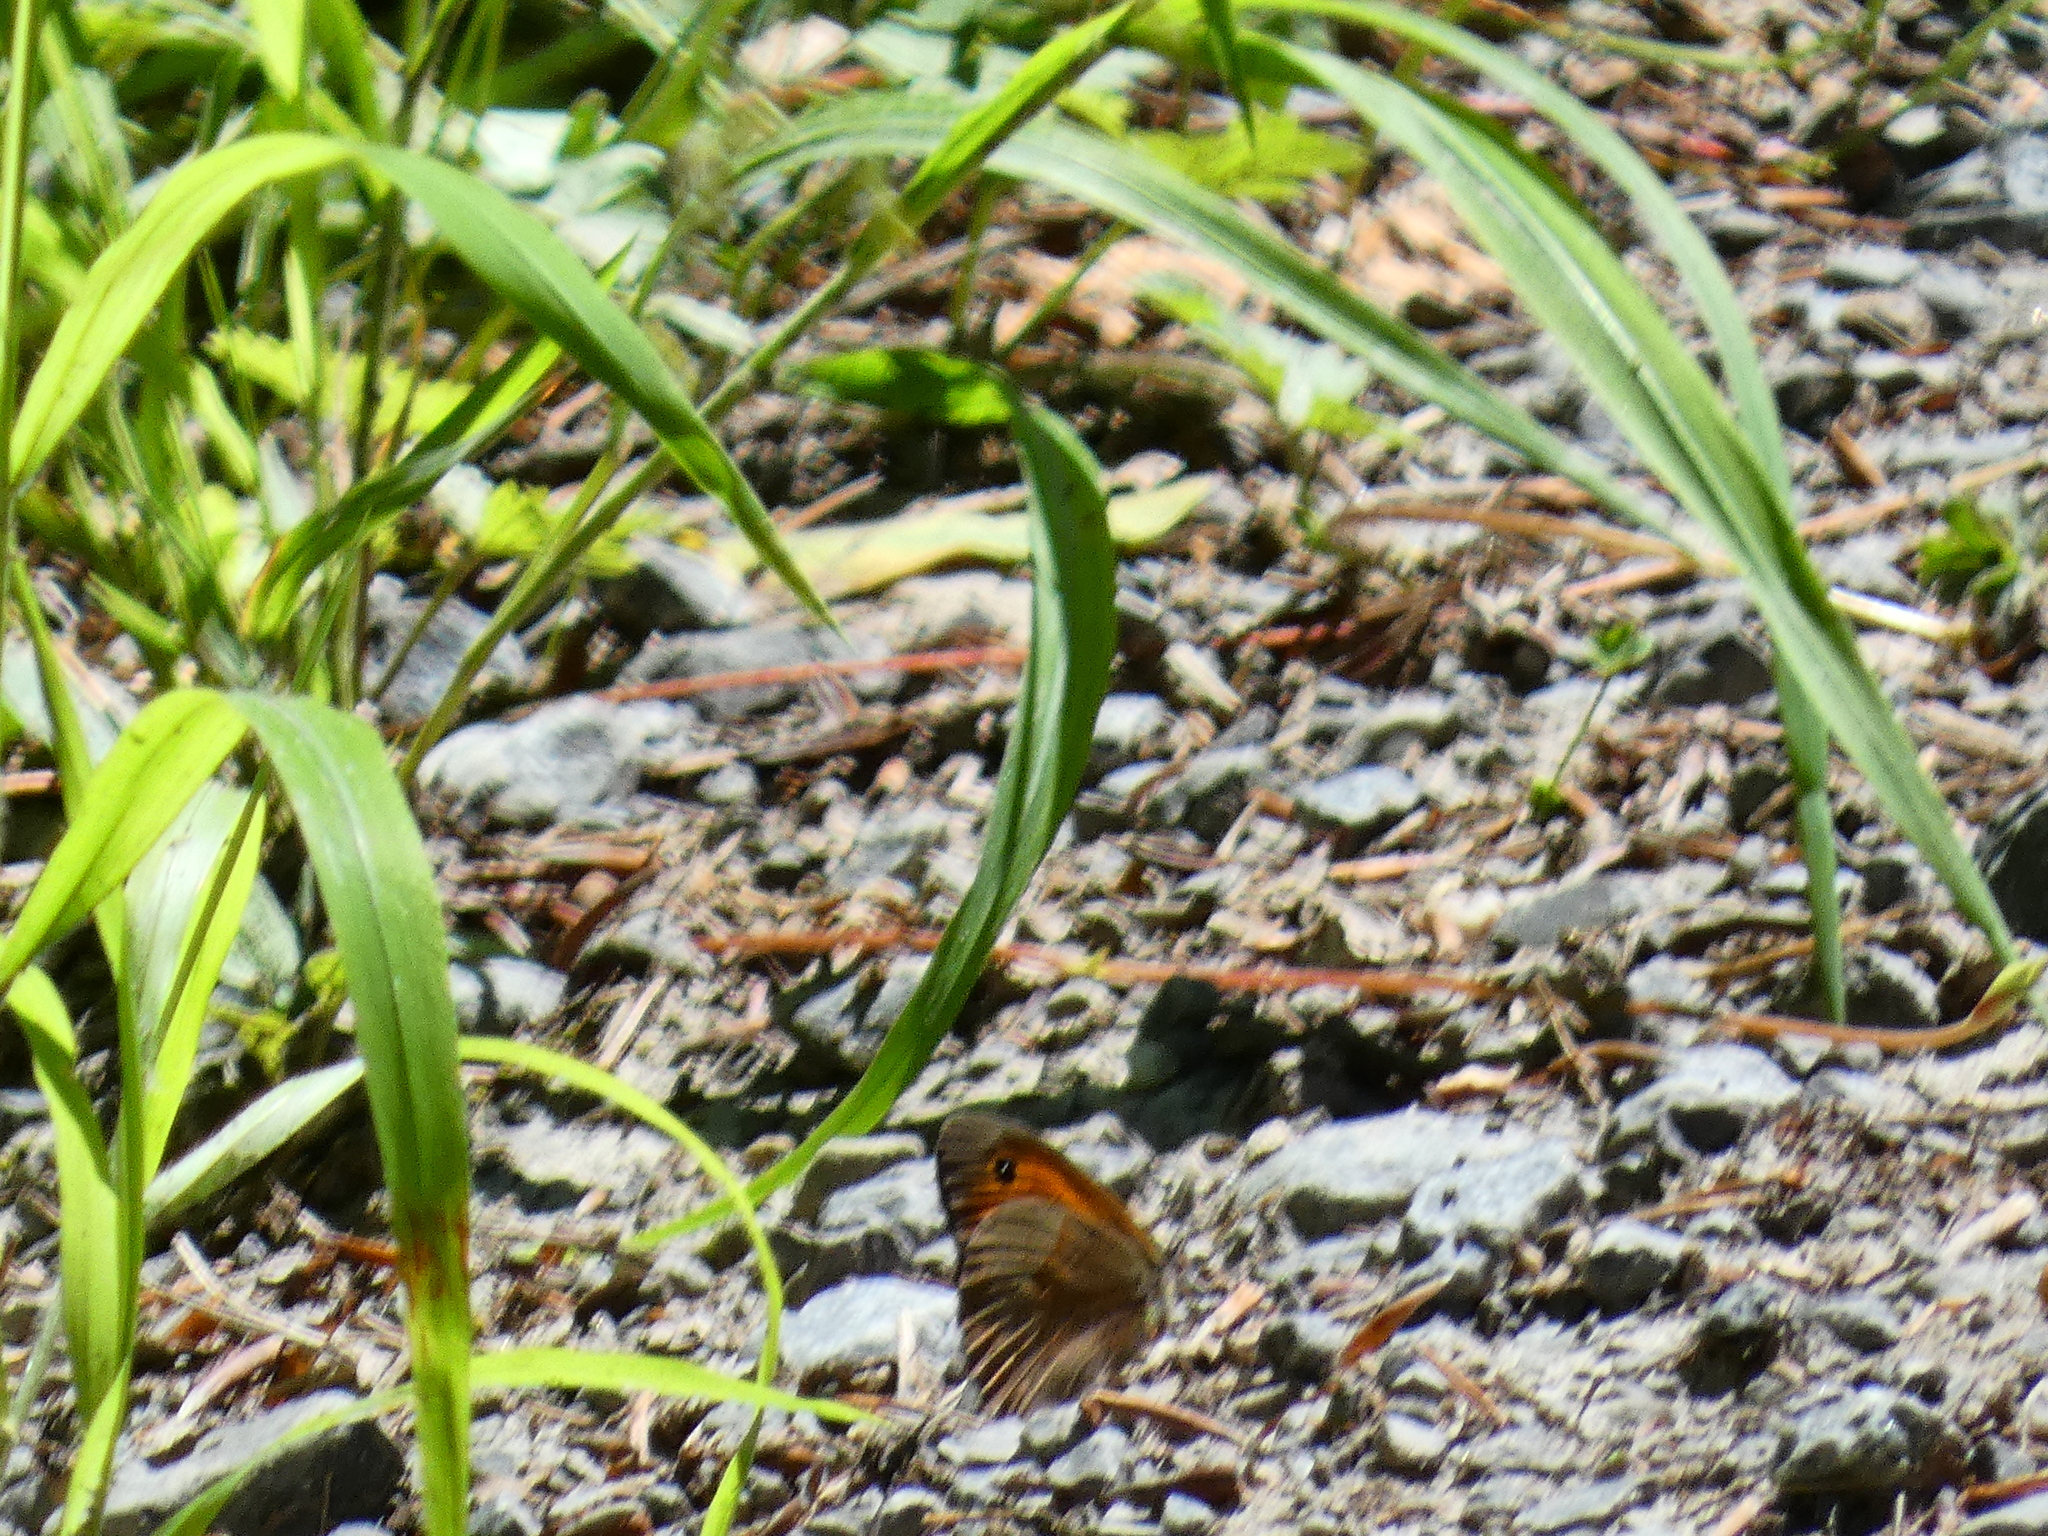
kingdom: Animalia
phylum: Arthropoda
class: Insecta
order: Lepidoptera
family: Nymphalidae
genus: Maniola
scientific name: Maniola jurtina
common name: Meadow brown
